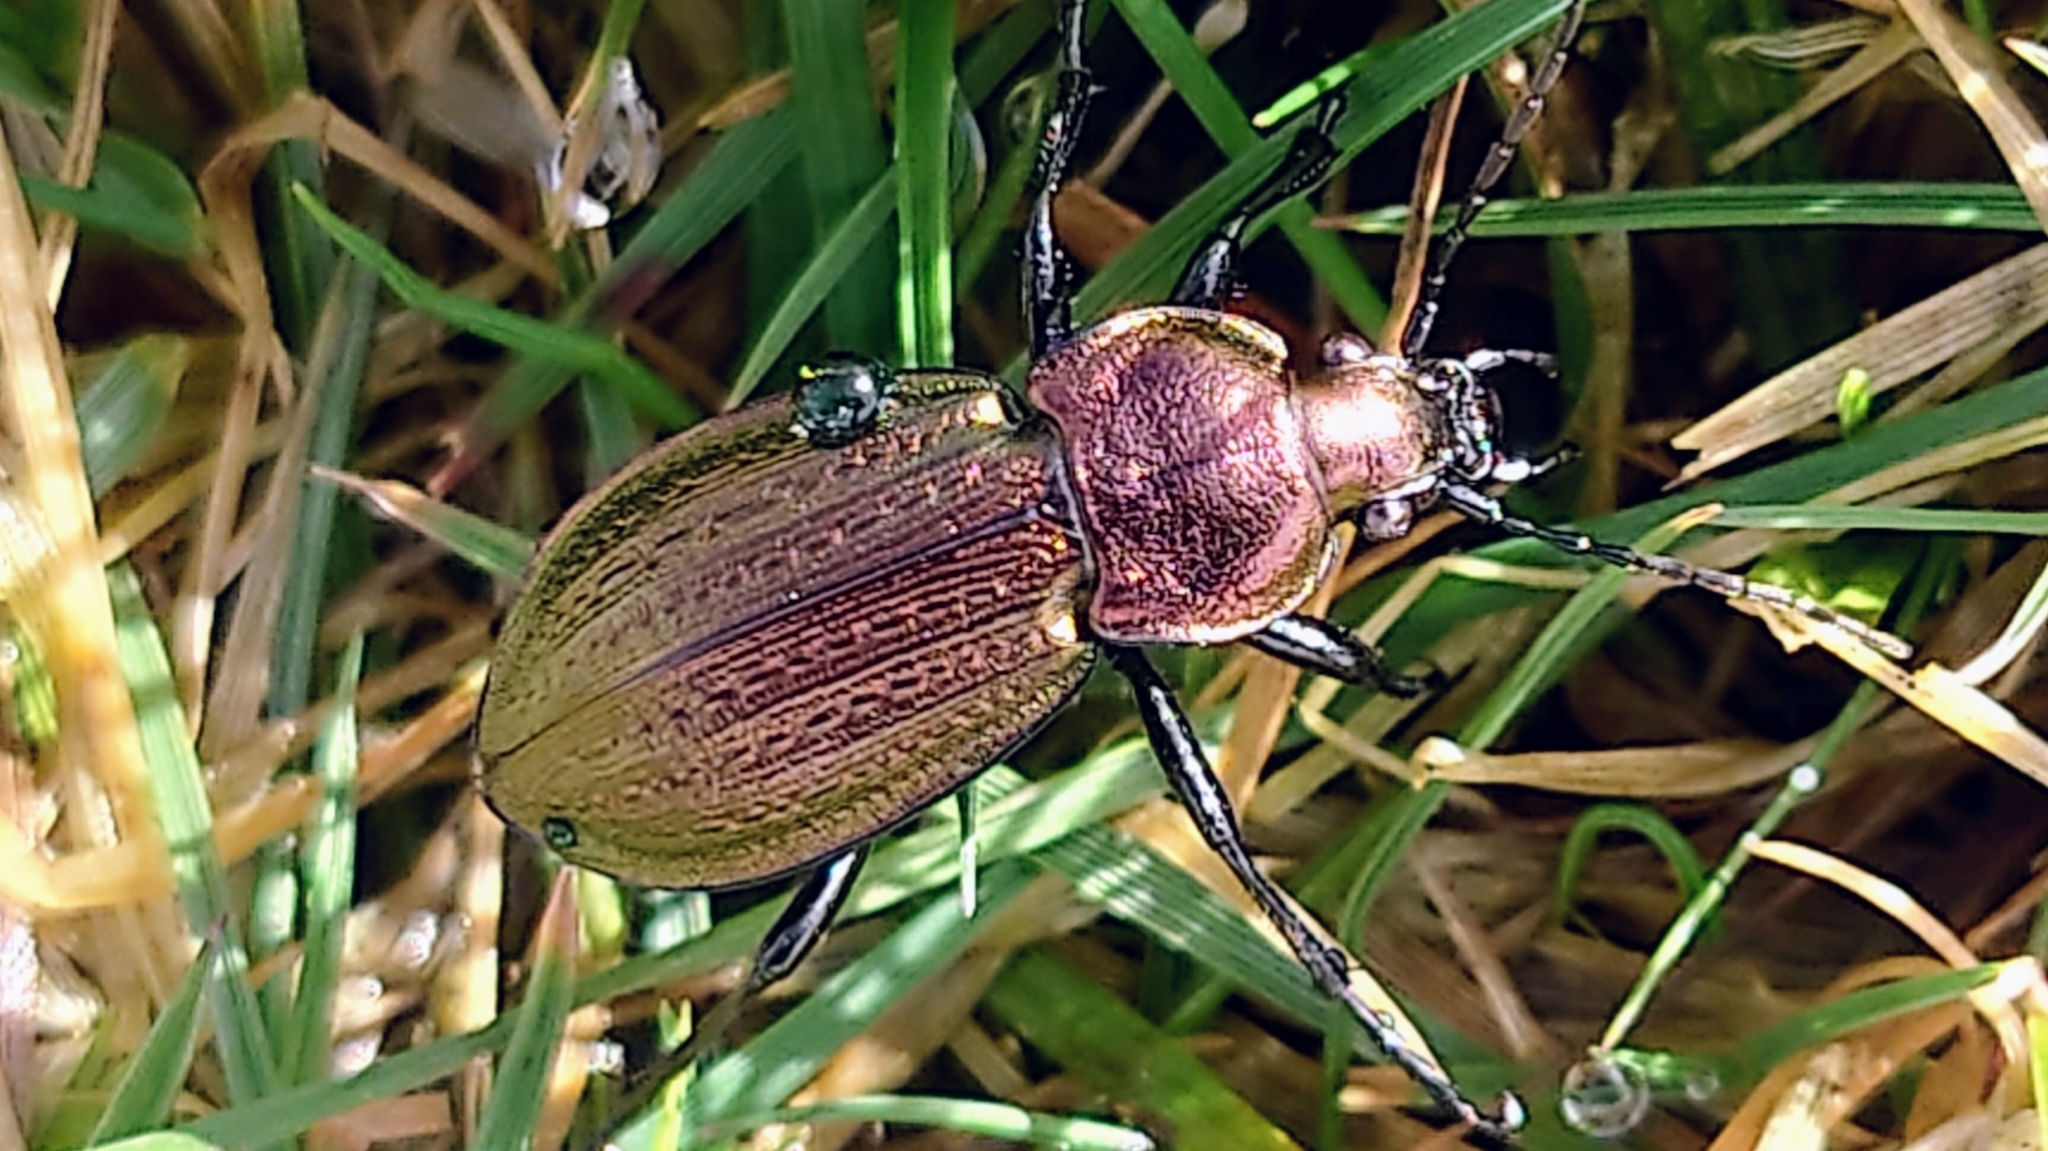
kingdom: Animalia
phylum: Arthropoda
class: Insecta
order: Coleoptera
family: Carabidae
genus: Carabus
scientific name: Carabus arvensis
